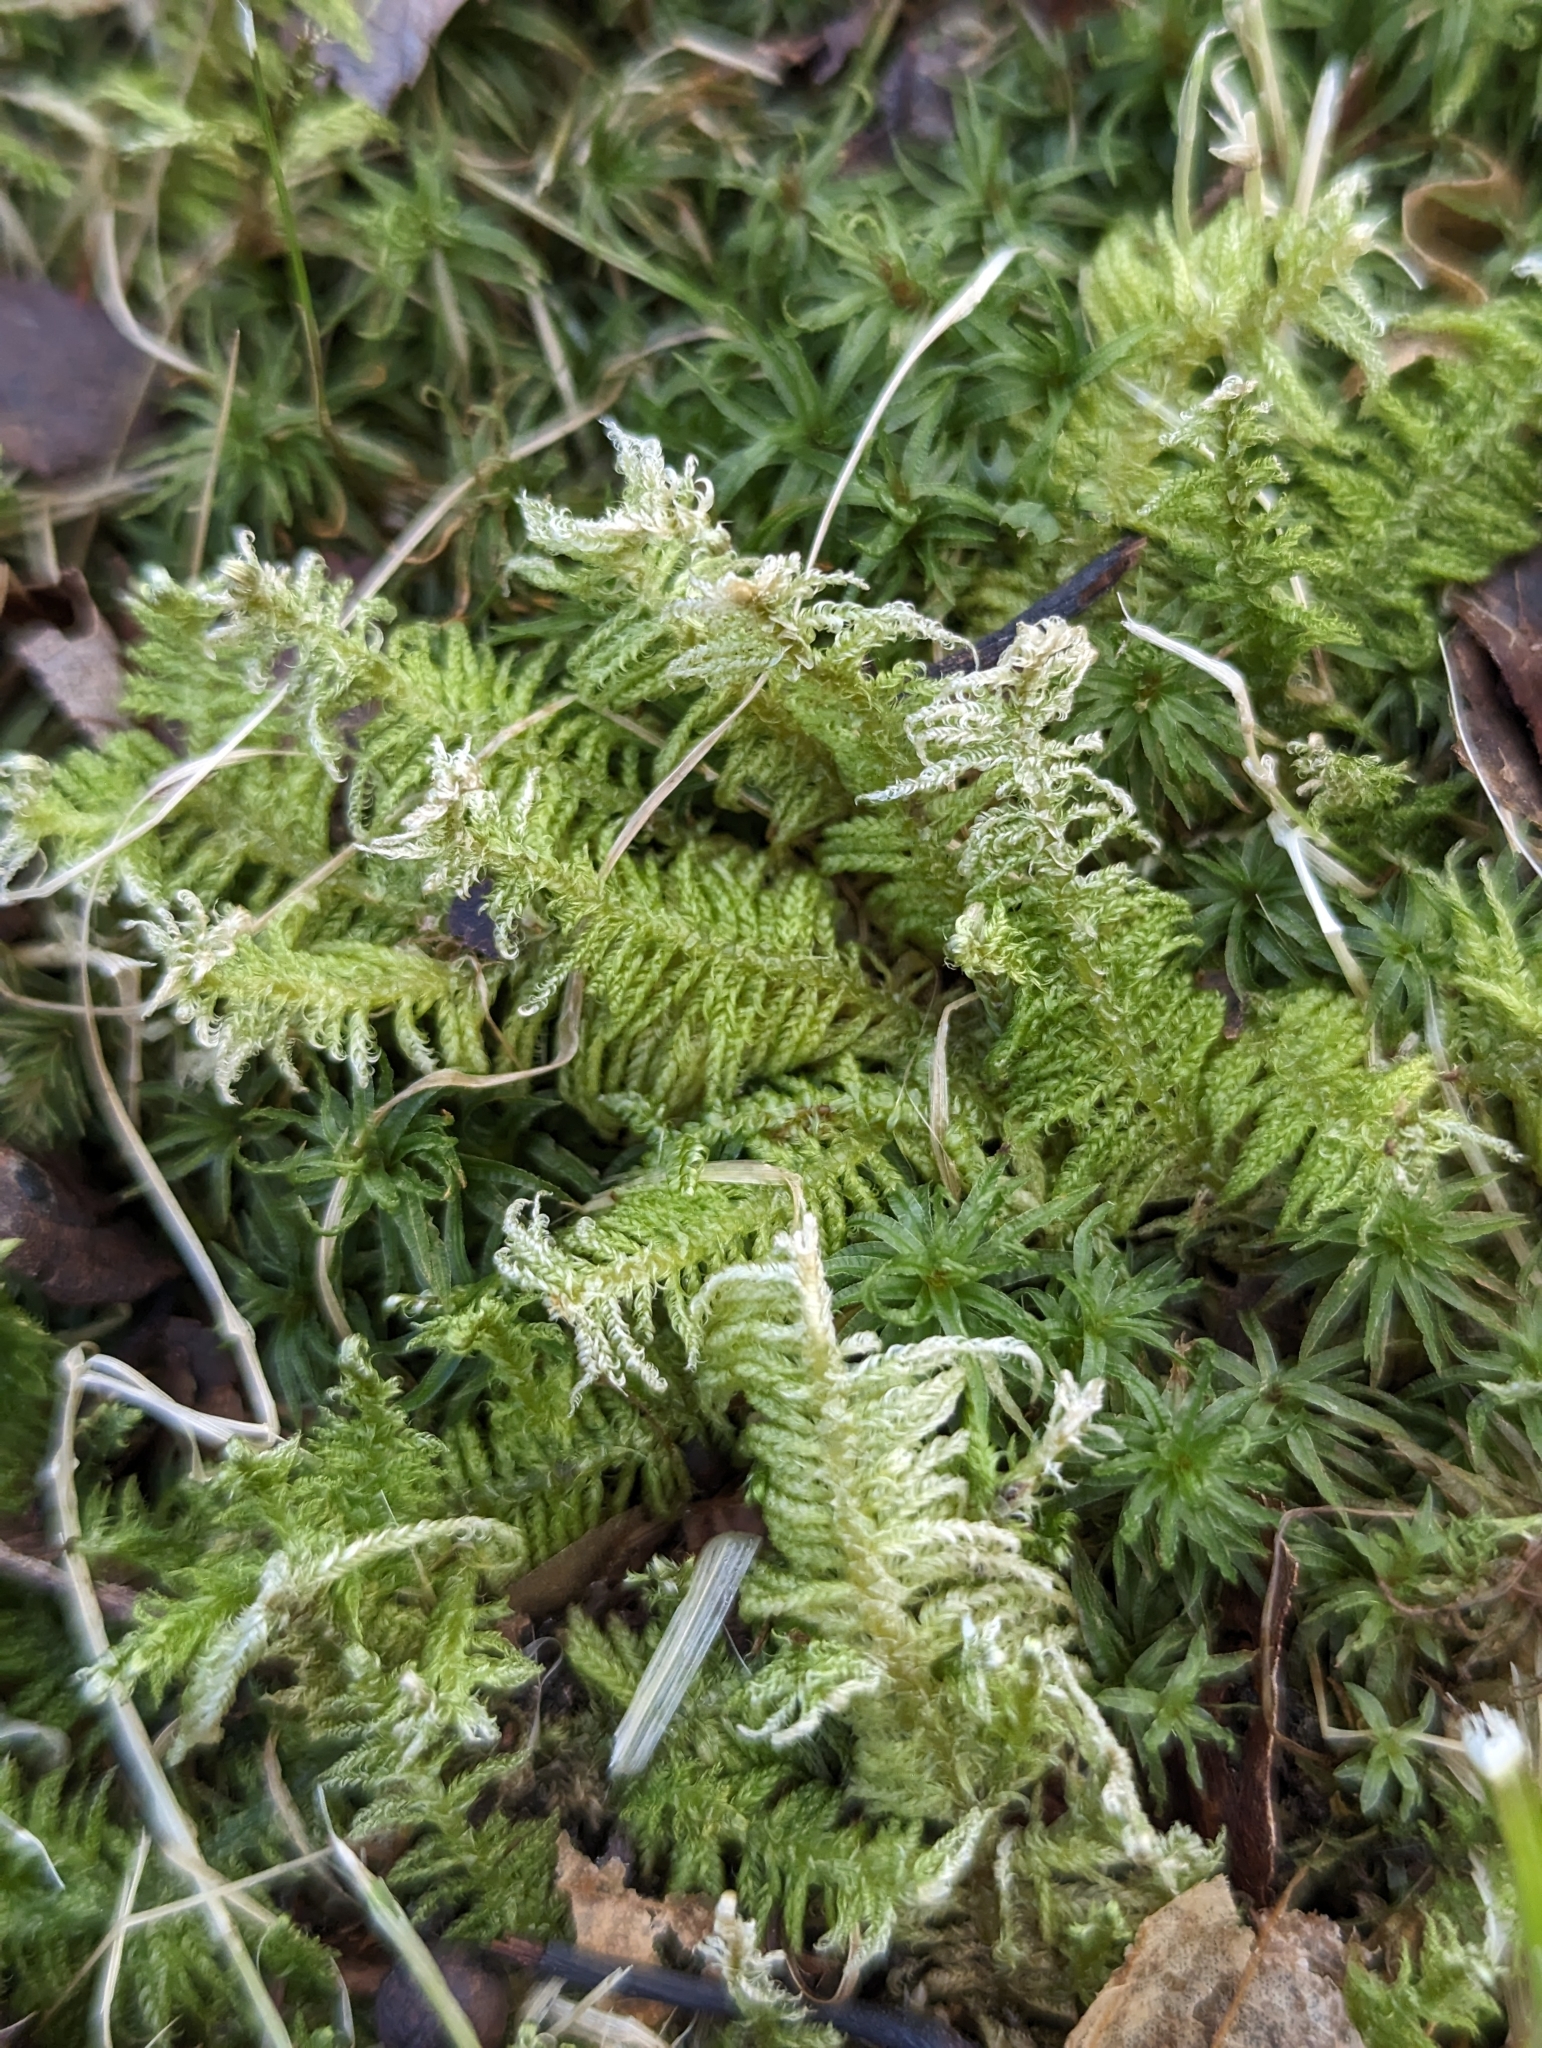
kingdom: Plantae
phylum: Bryophyta
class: Bryopsida
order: Hypnales
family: Pylaisiaceae
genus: Ptilium
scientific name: Ptilium crista-castrensis
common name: Knight's plume moss
